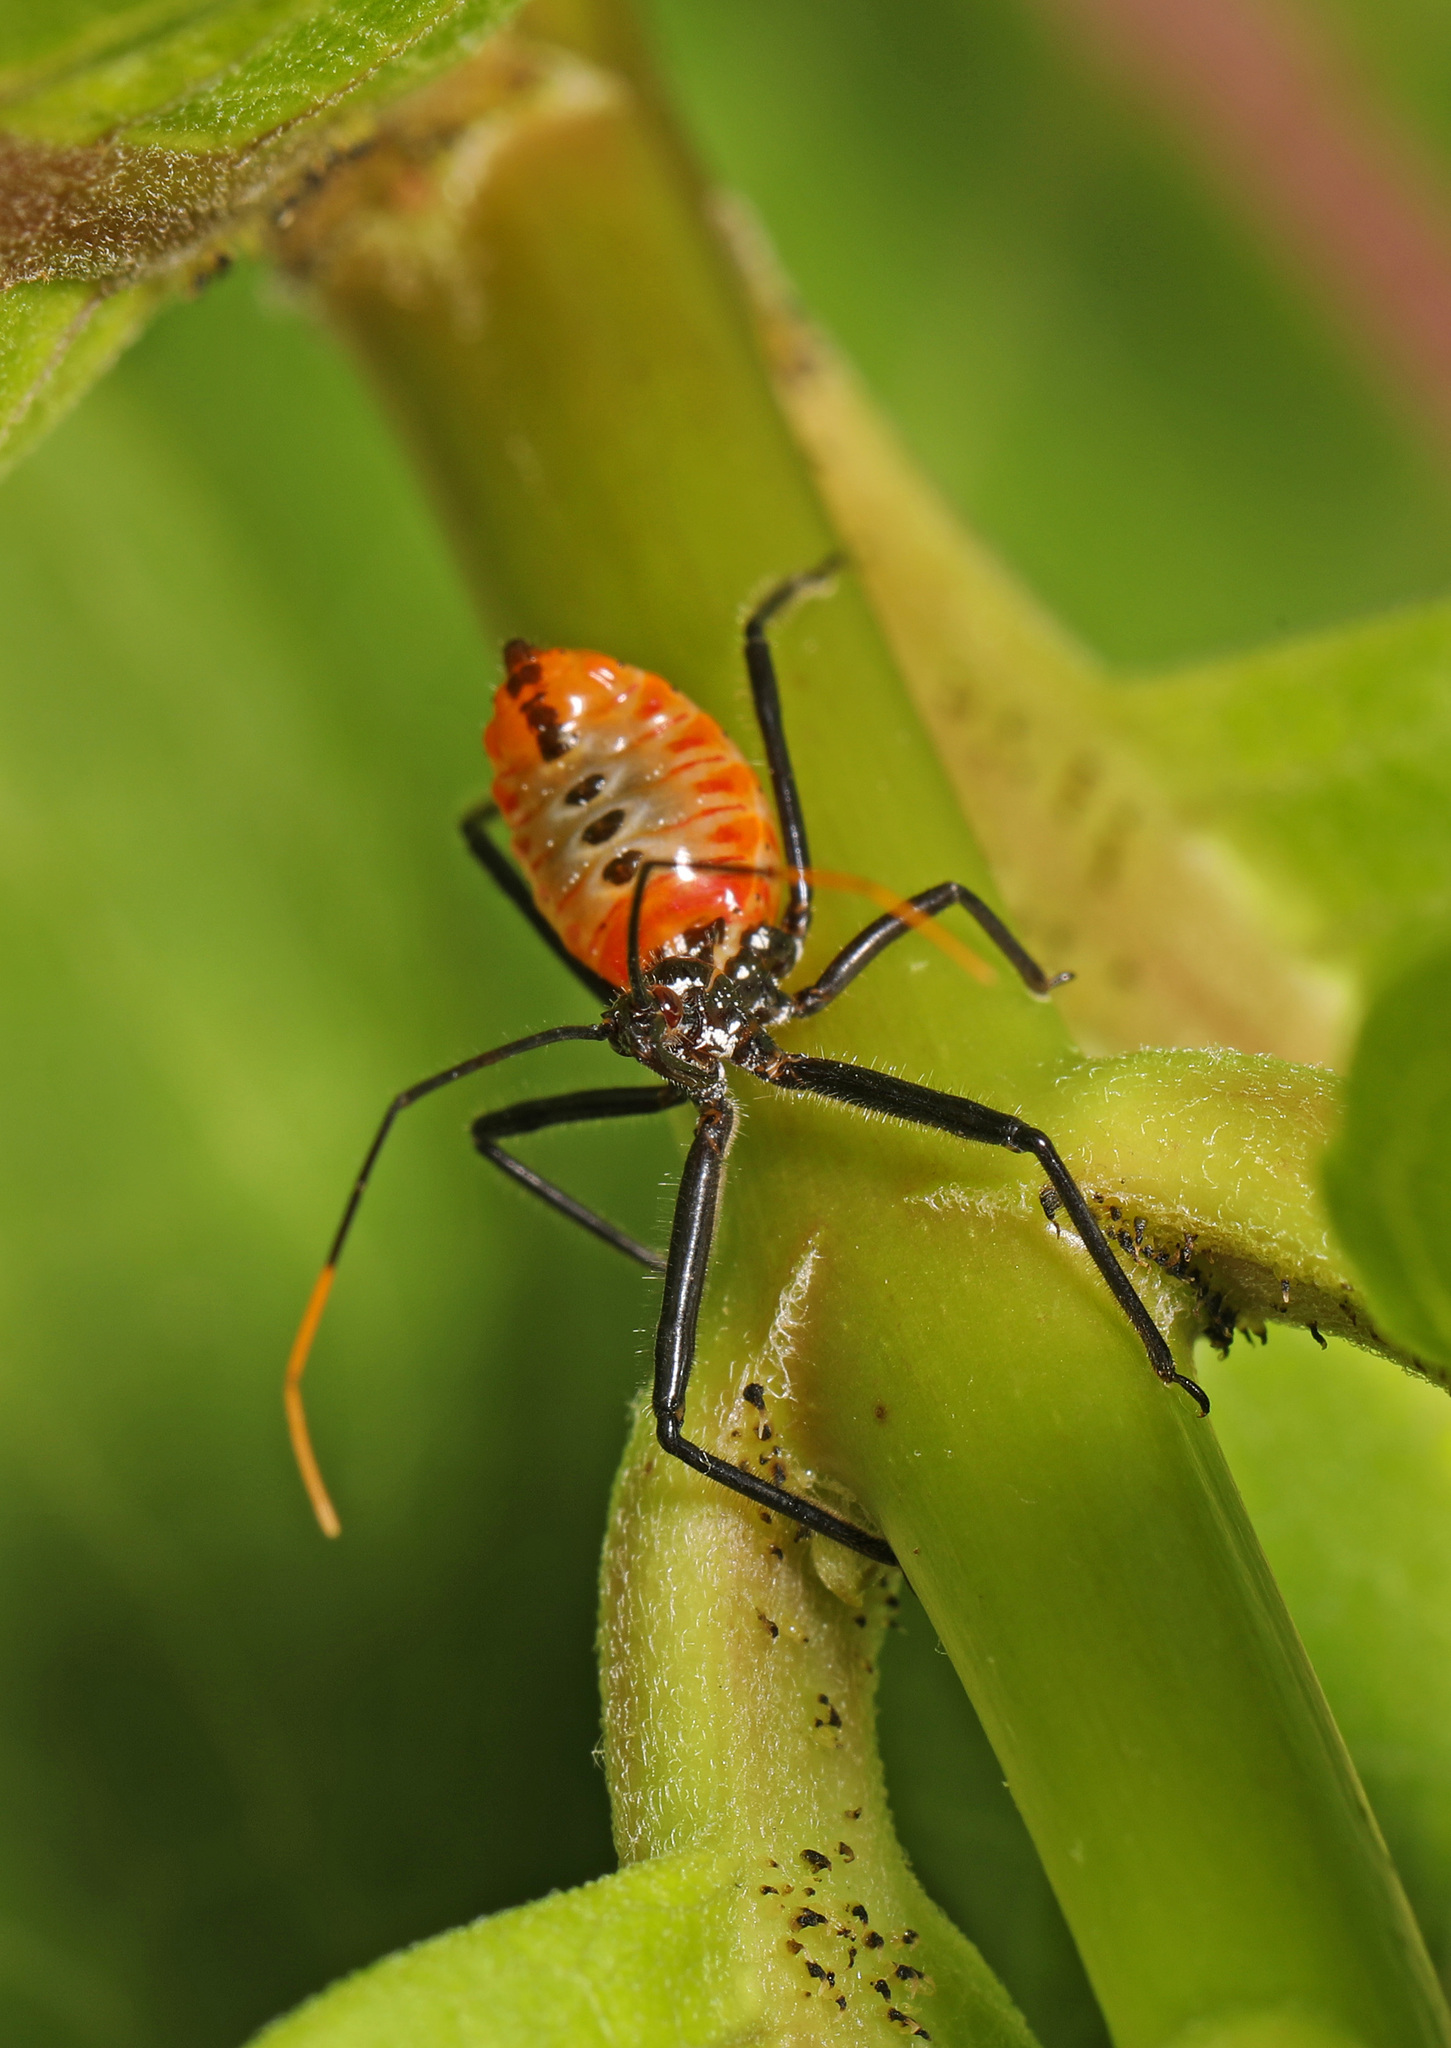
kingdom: Animalia
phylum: Arthropoda
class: Insecta
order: Hemiptera
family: Reduviidae
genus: Arilus
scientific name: Arilus cristatus
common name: North american wheel bug
